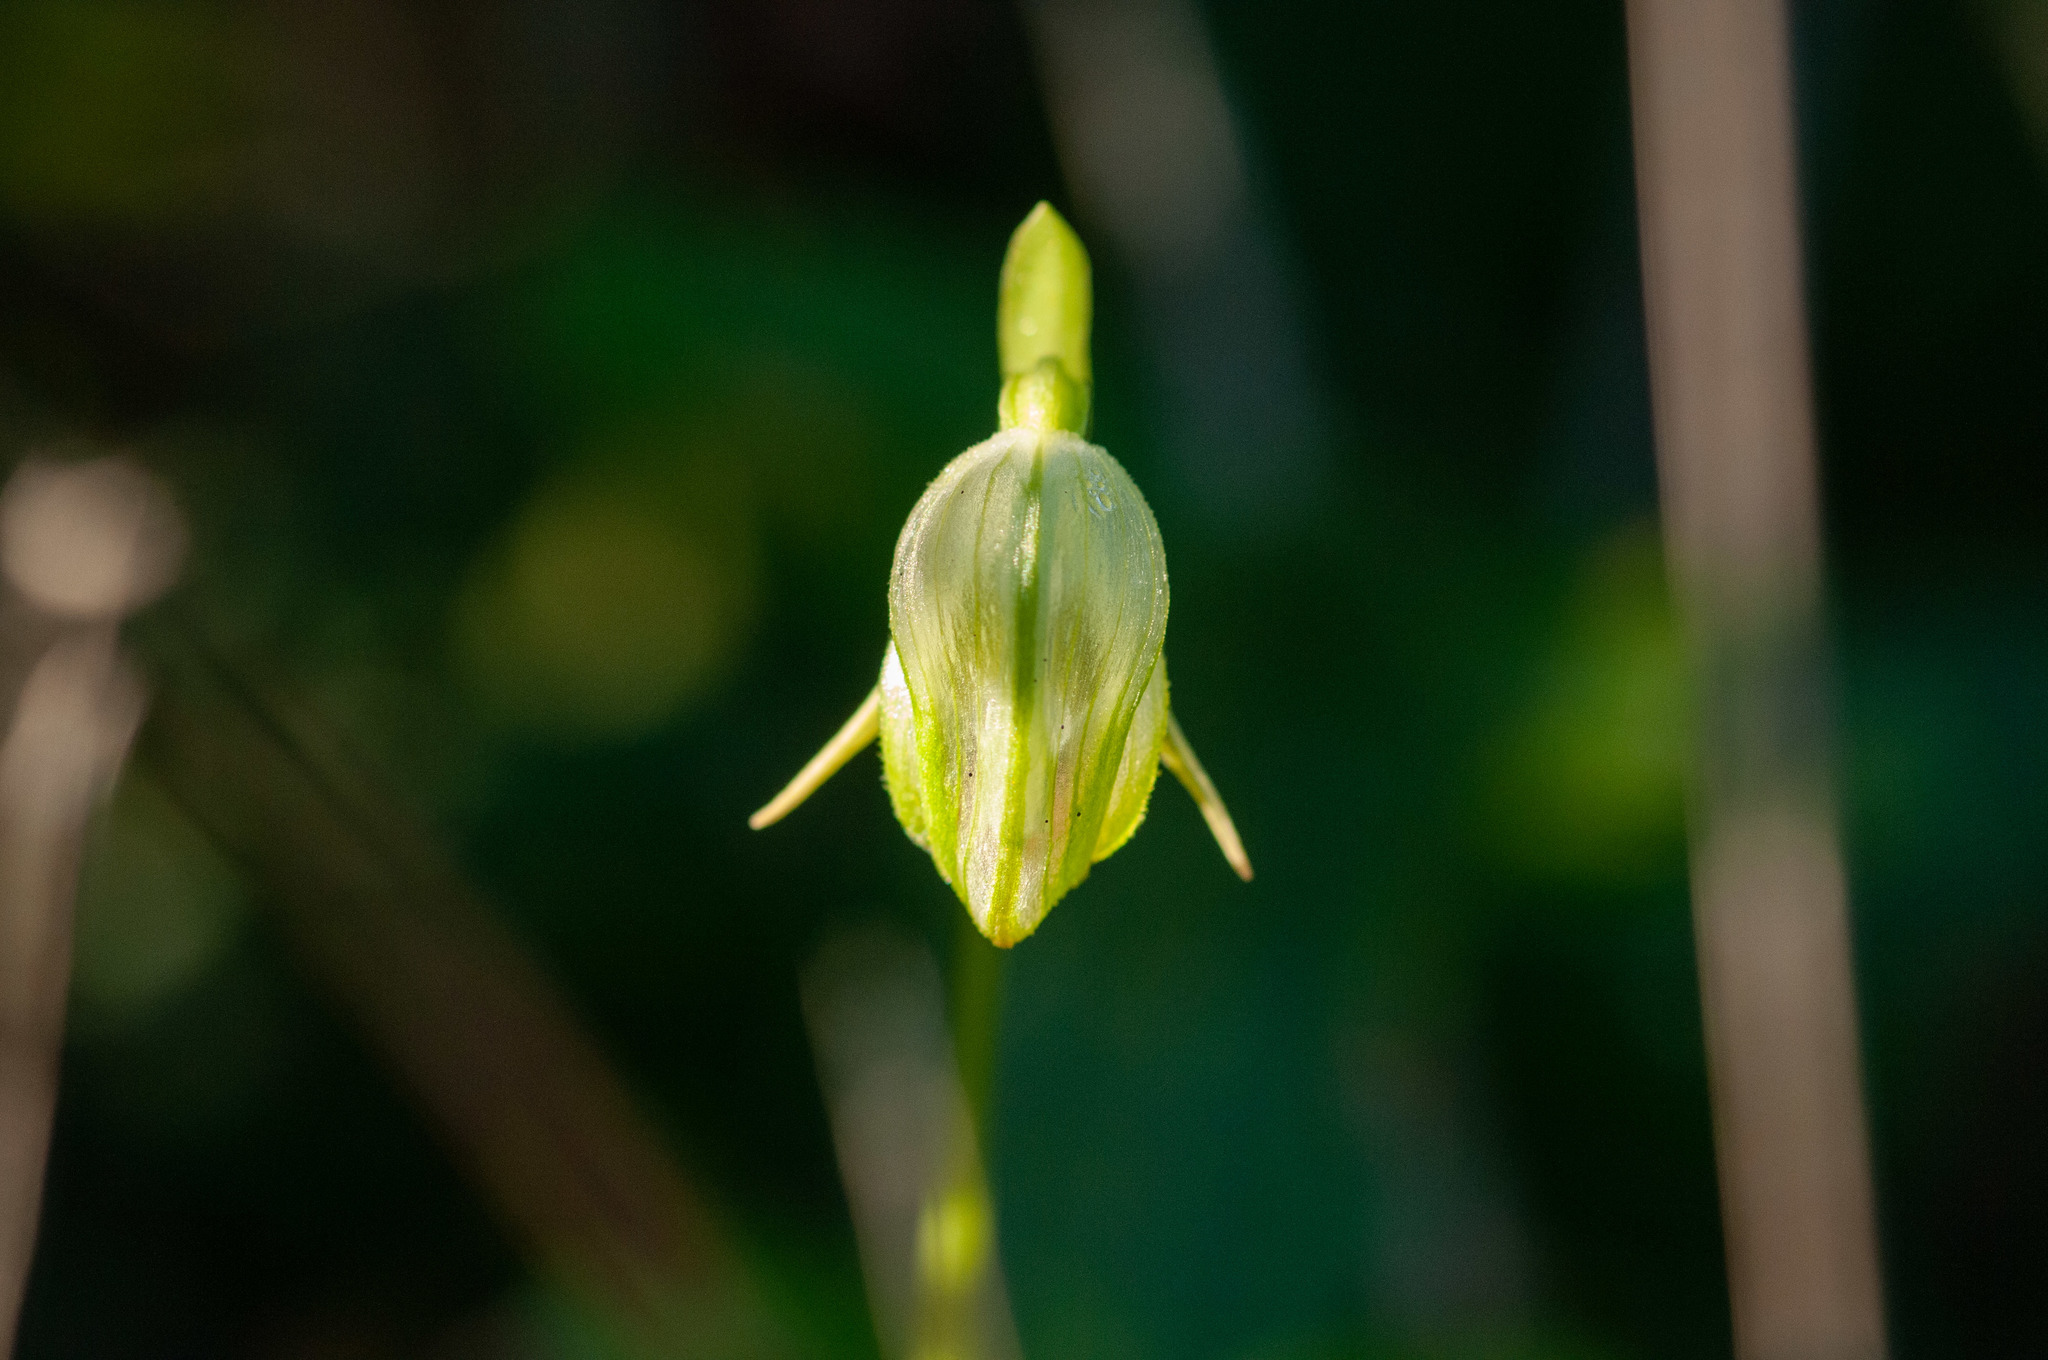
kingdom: Plantae
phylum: Tracheophyta
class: Liliopsida
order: Asparagales
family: Orchidaceae
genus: Pterostylis
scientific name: Pterostylis nutans
